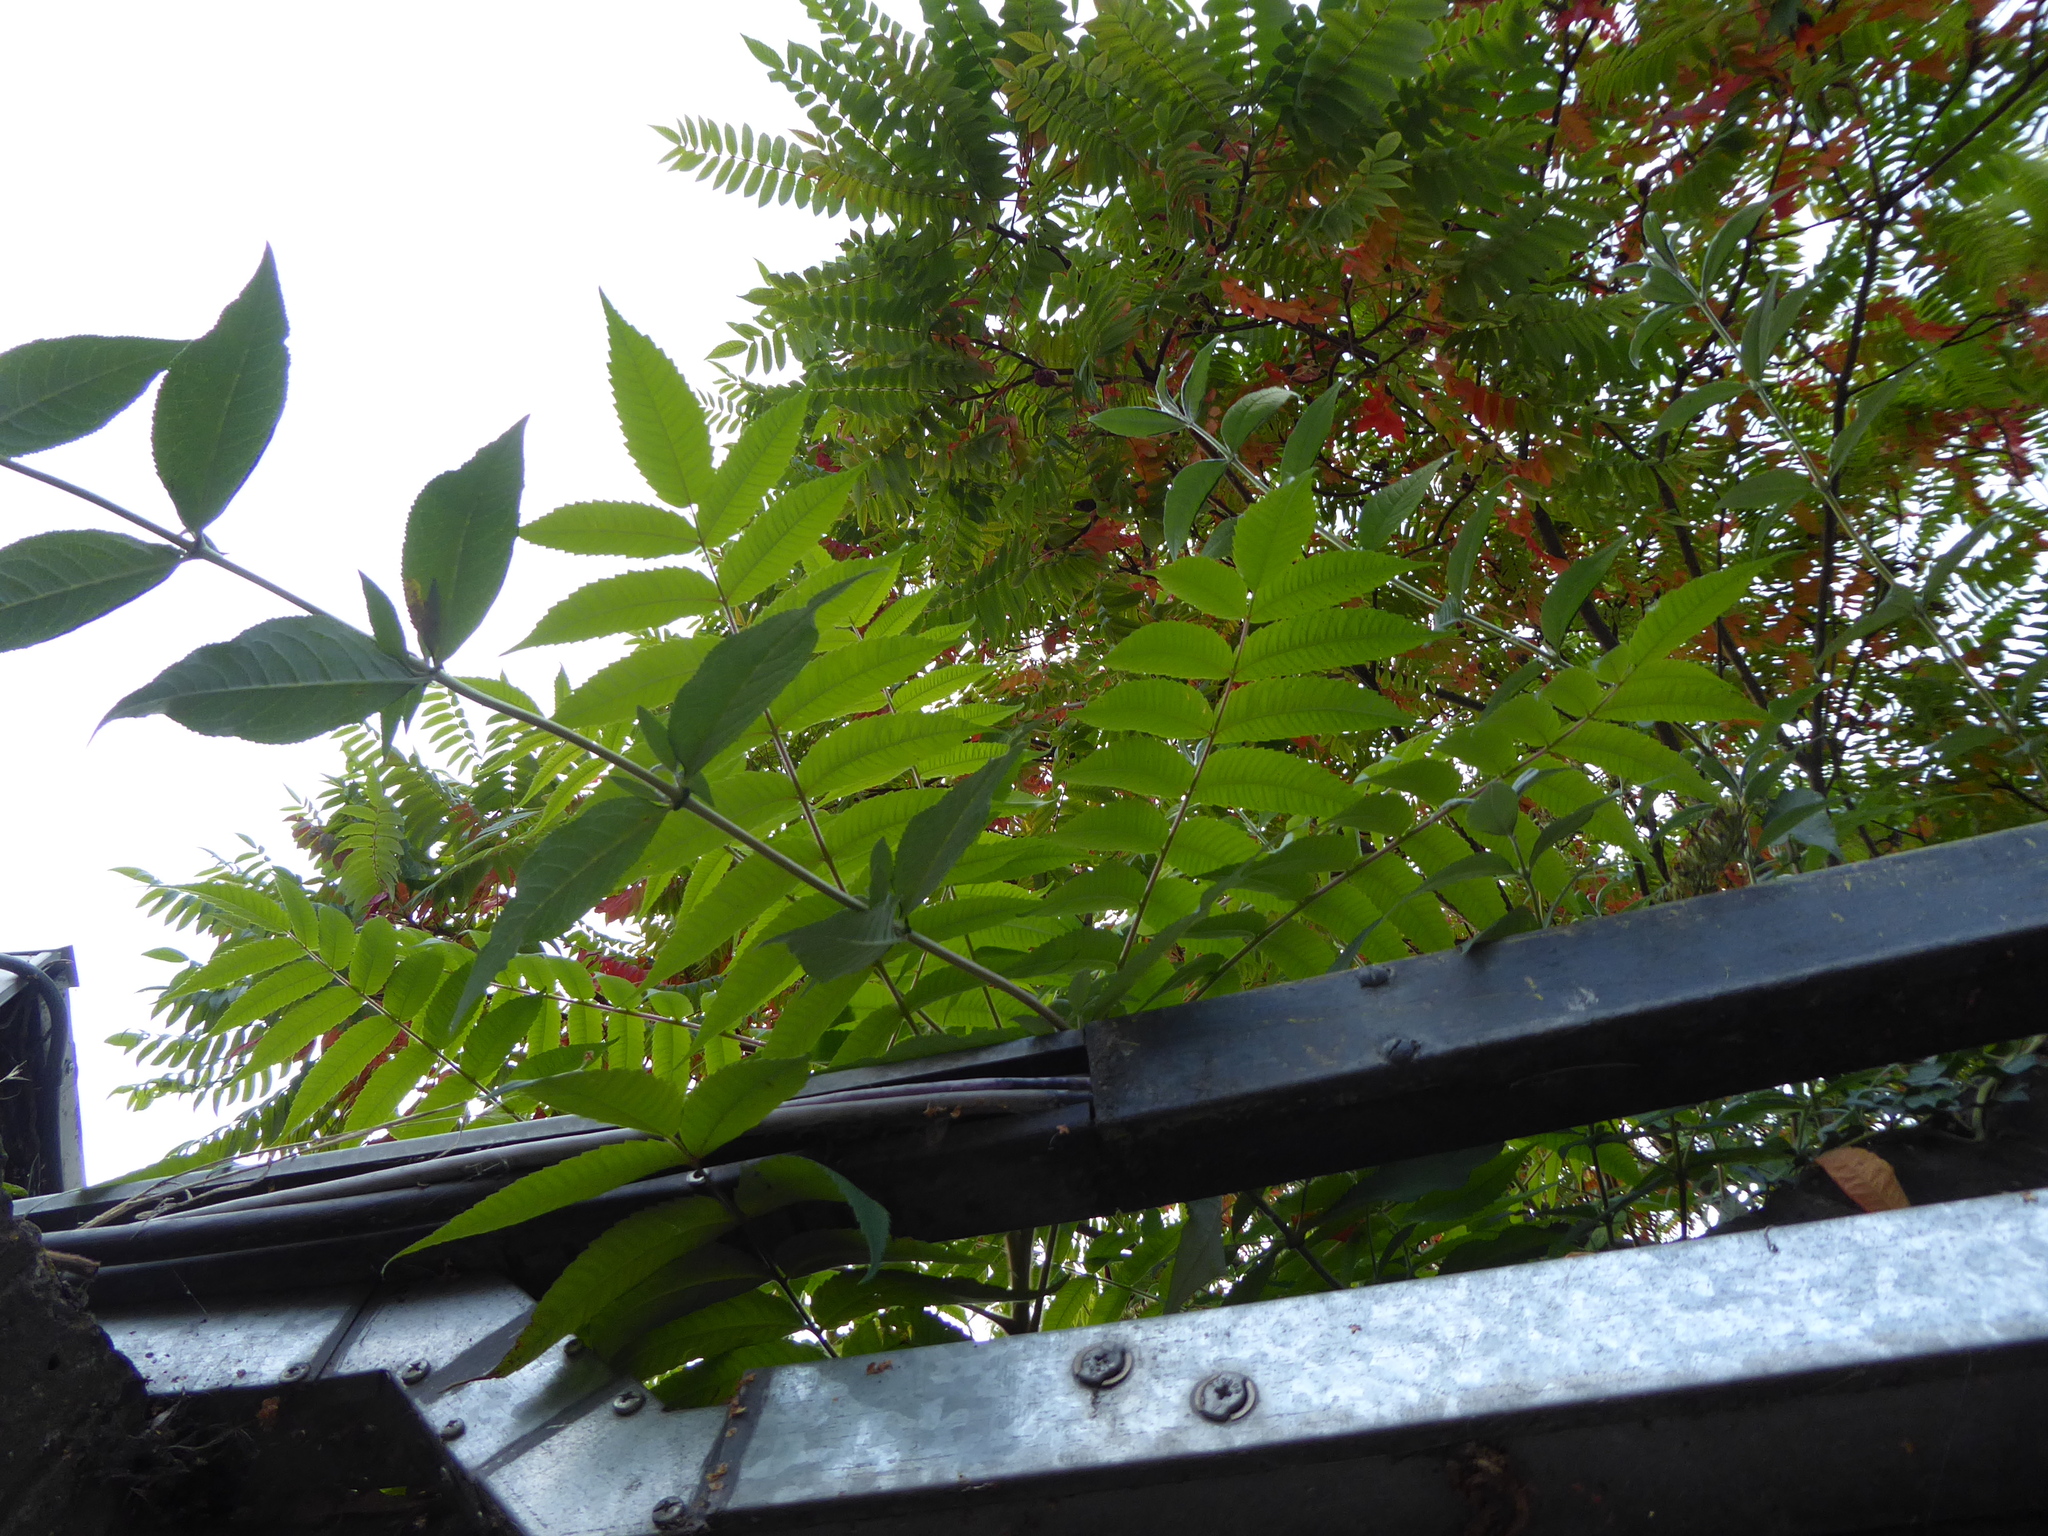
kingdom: Plantae
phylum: Tracheophyta
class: Magnoliopsida
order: Sapindales
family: Anacardiaceae
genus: Rhus
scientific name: Rhus typhina
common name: Staghorn sumac
